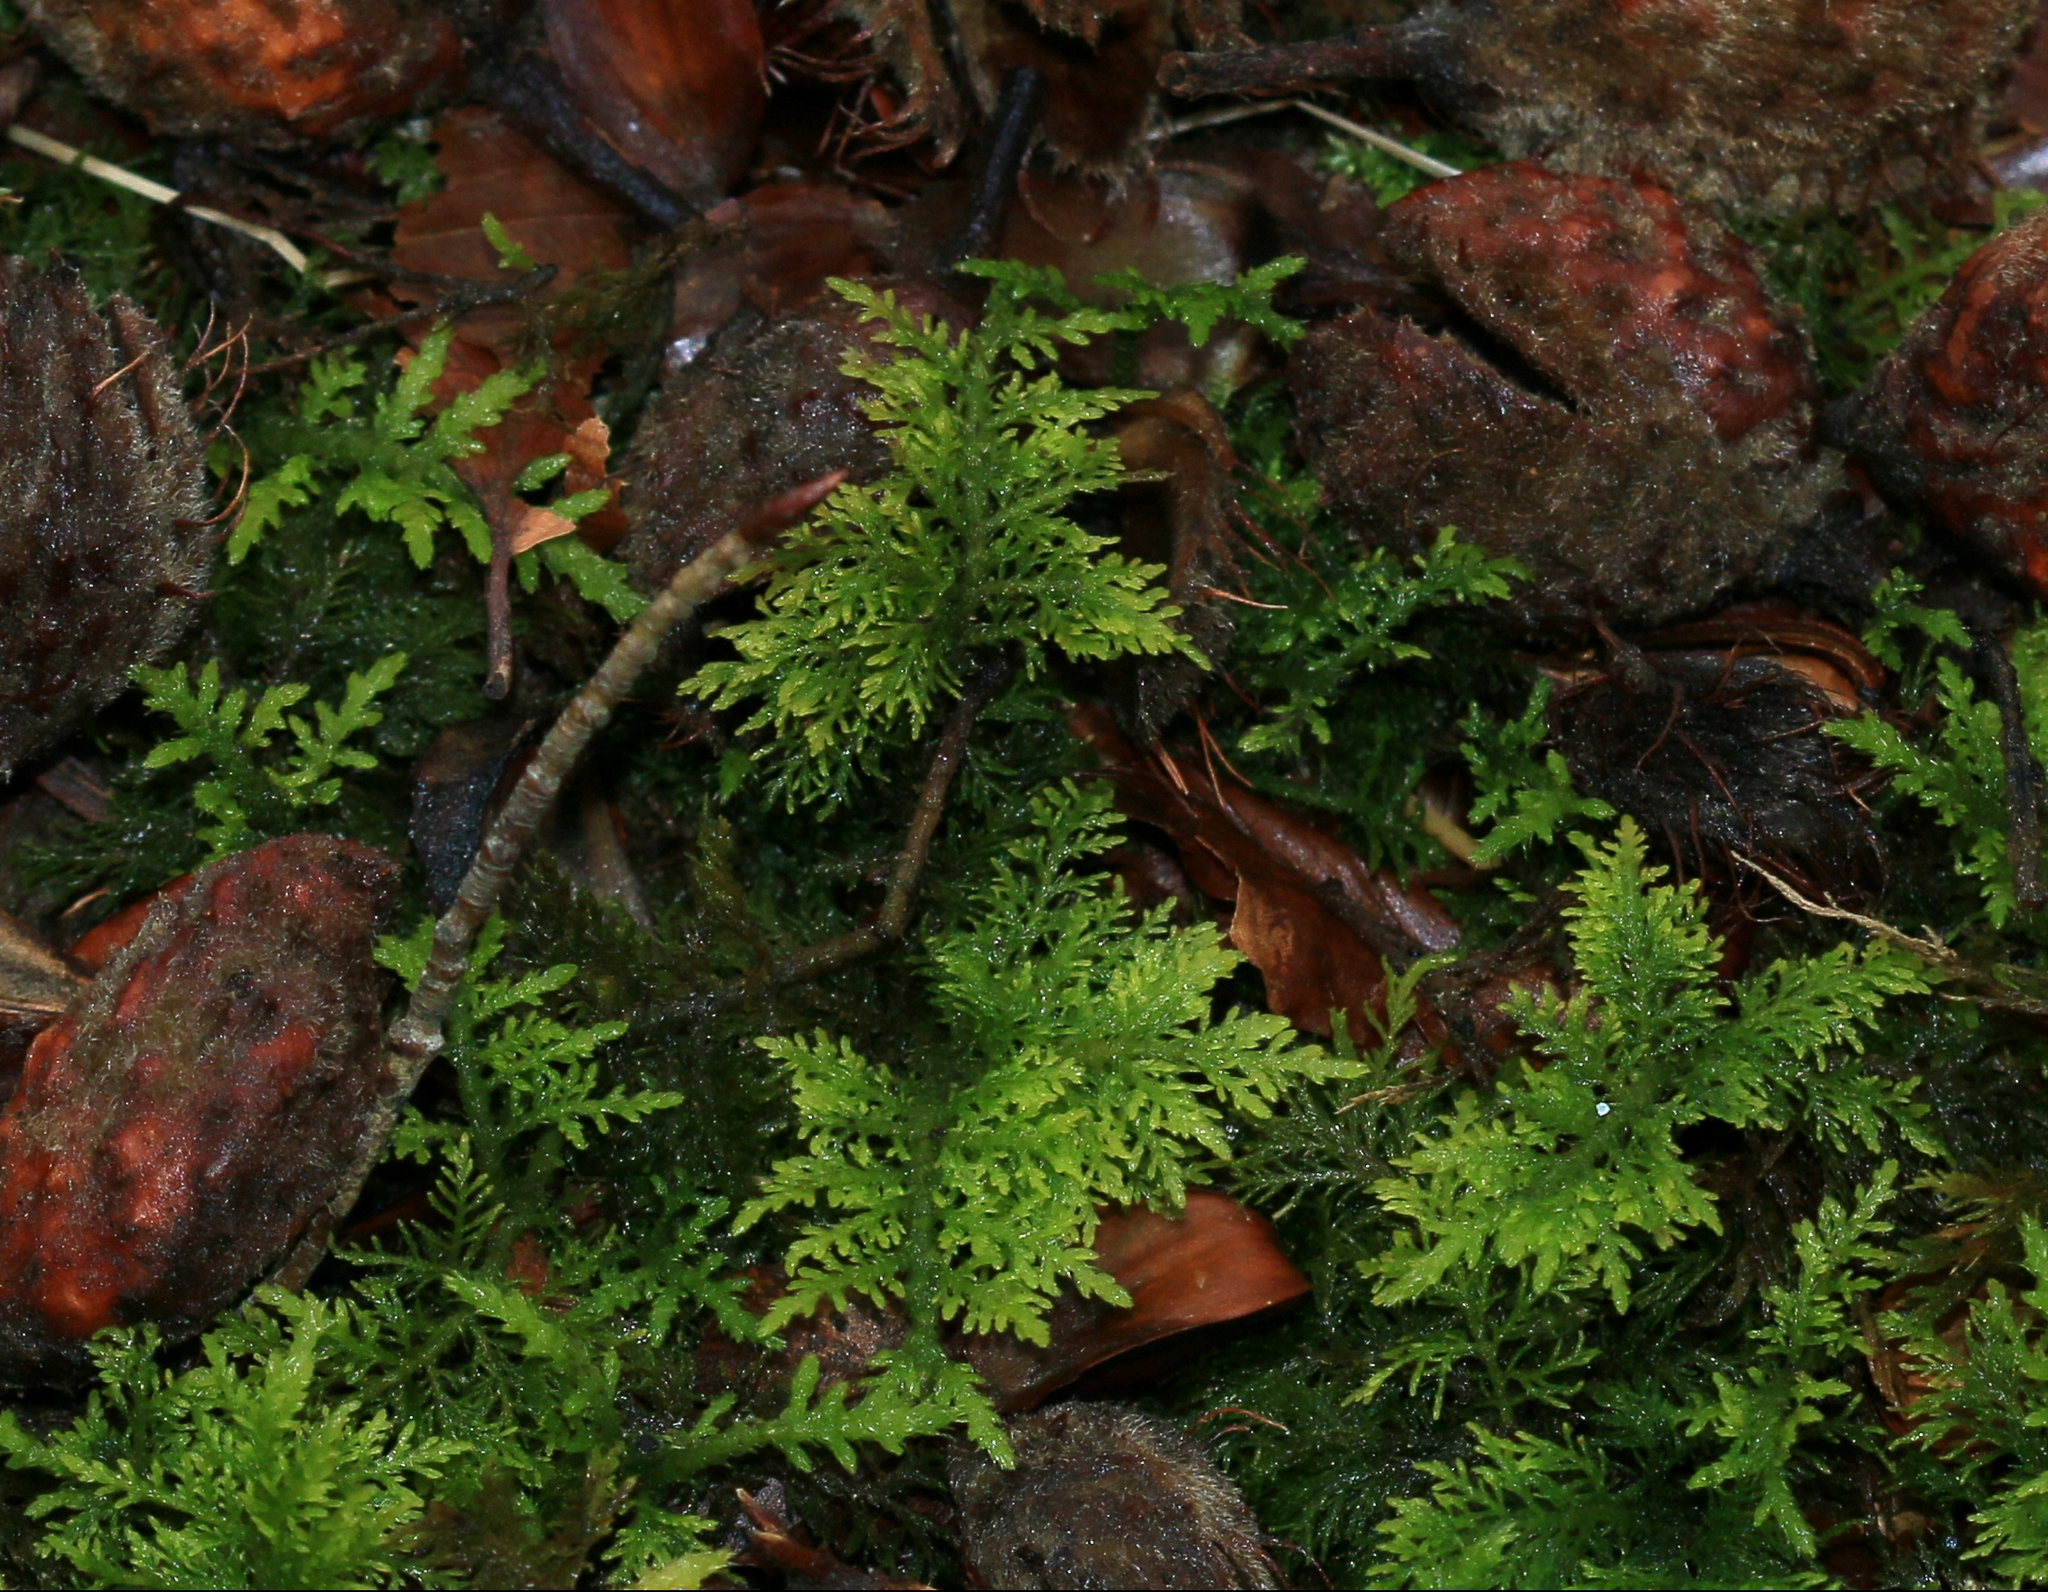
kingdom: Plantae
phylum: Bryophyta
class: Bryopsida
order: Hypnales
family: Thuidiaceae
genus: Thuidium
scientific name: Thuidium tamariscinum
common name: Common tamarisk-moss
